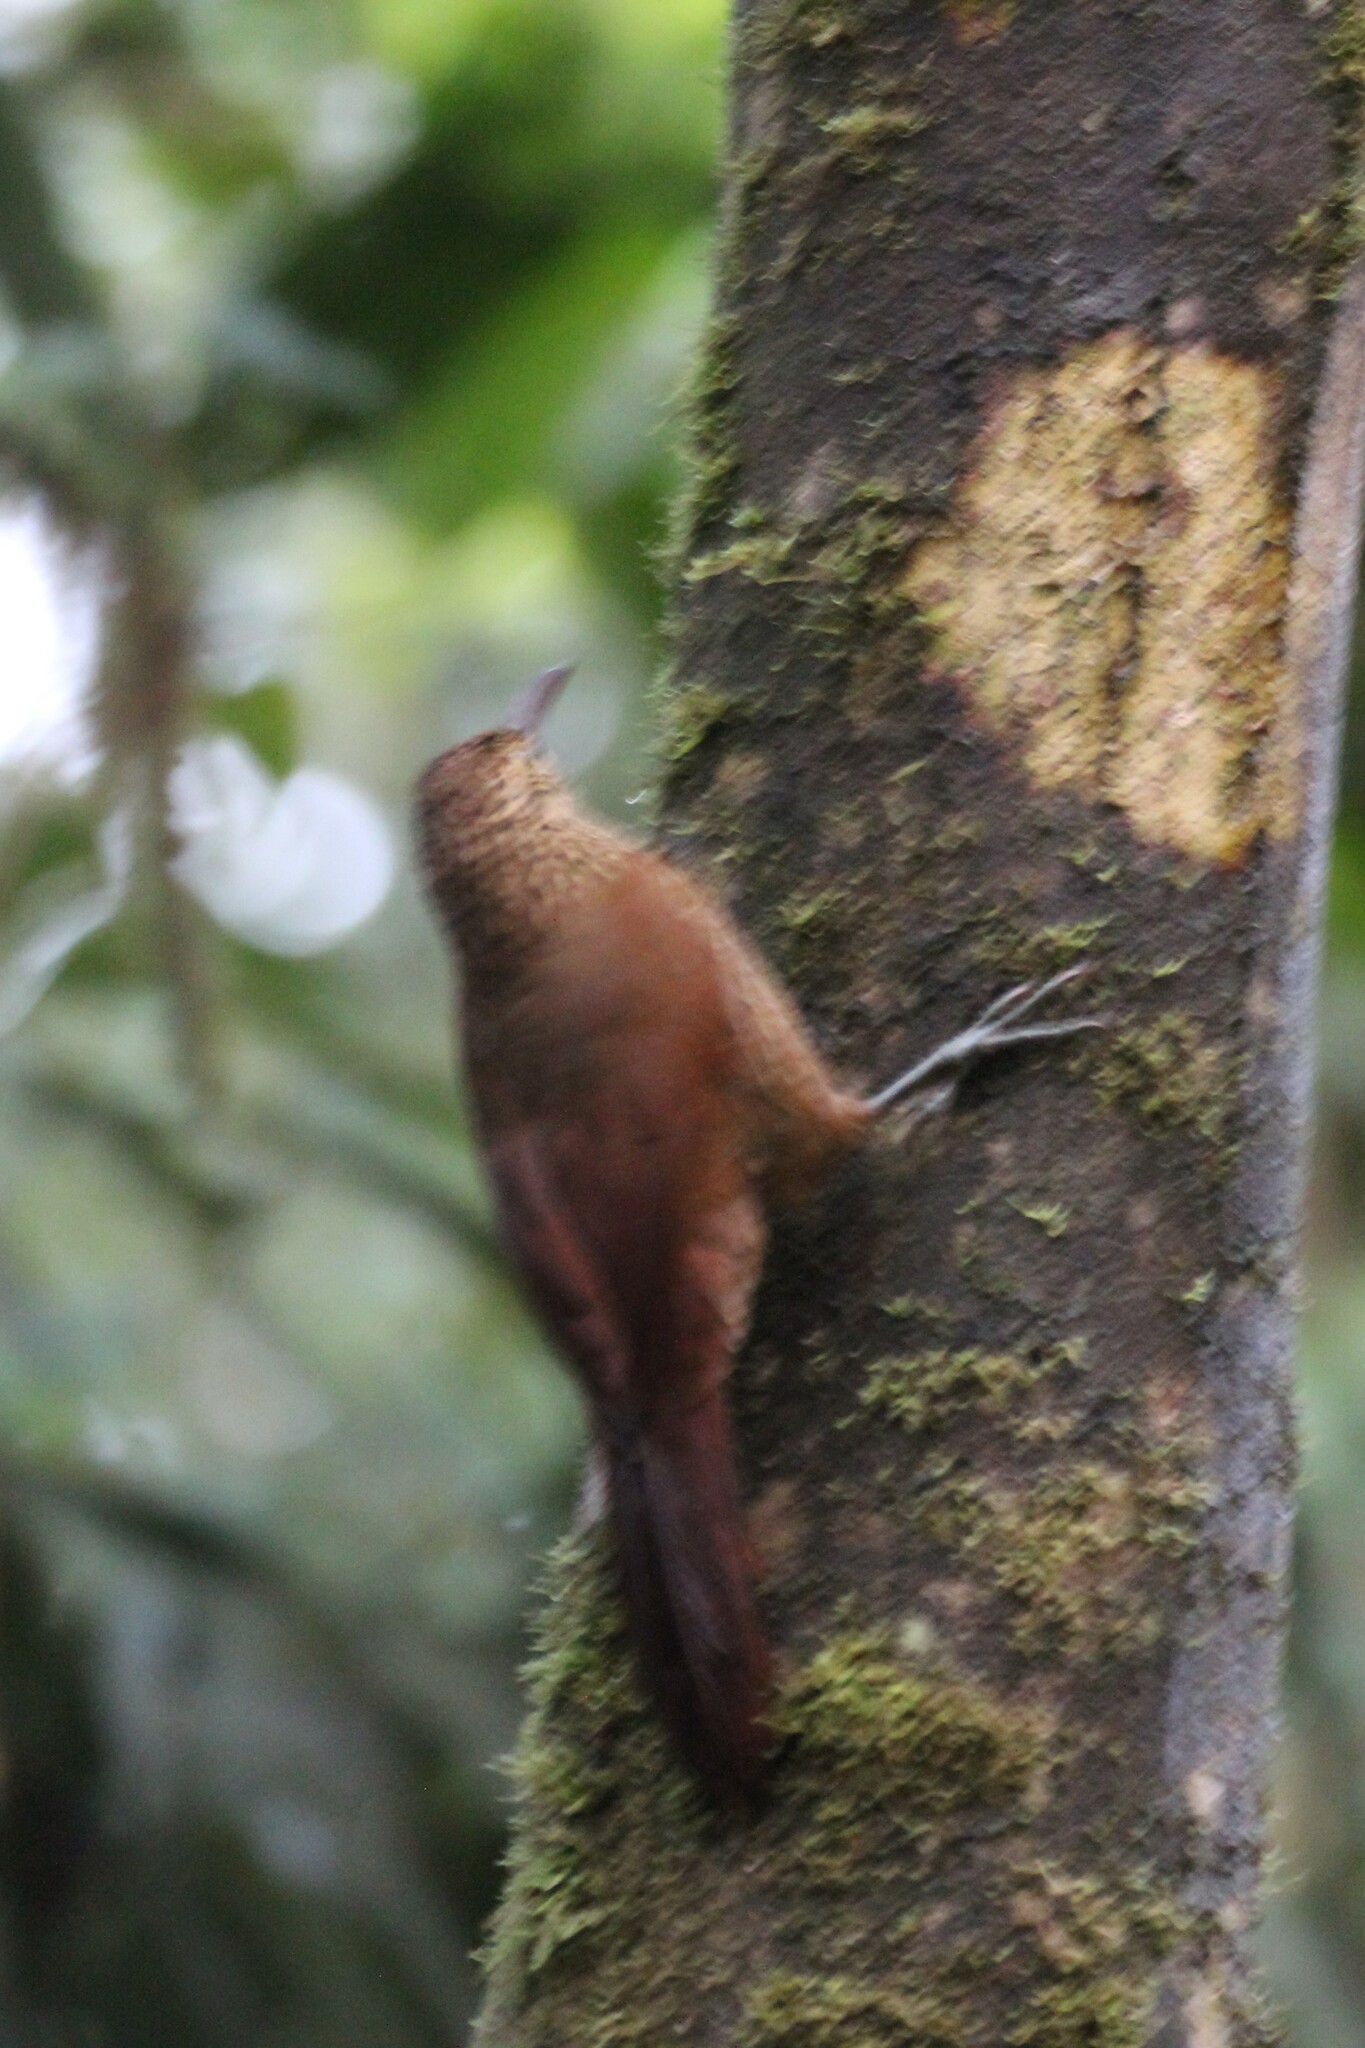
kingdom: Animalia
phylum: Chordata
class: Aves
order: Passeriformes
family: Furnariidae
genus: Xiphocolaptes
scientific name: Xiphocolaptes promeropirhynchus
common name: Strong-billed woodcreeper
